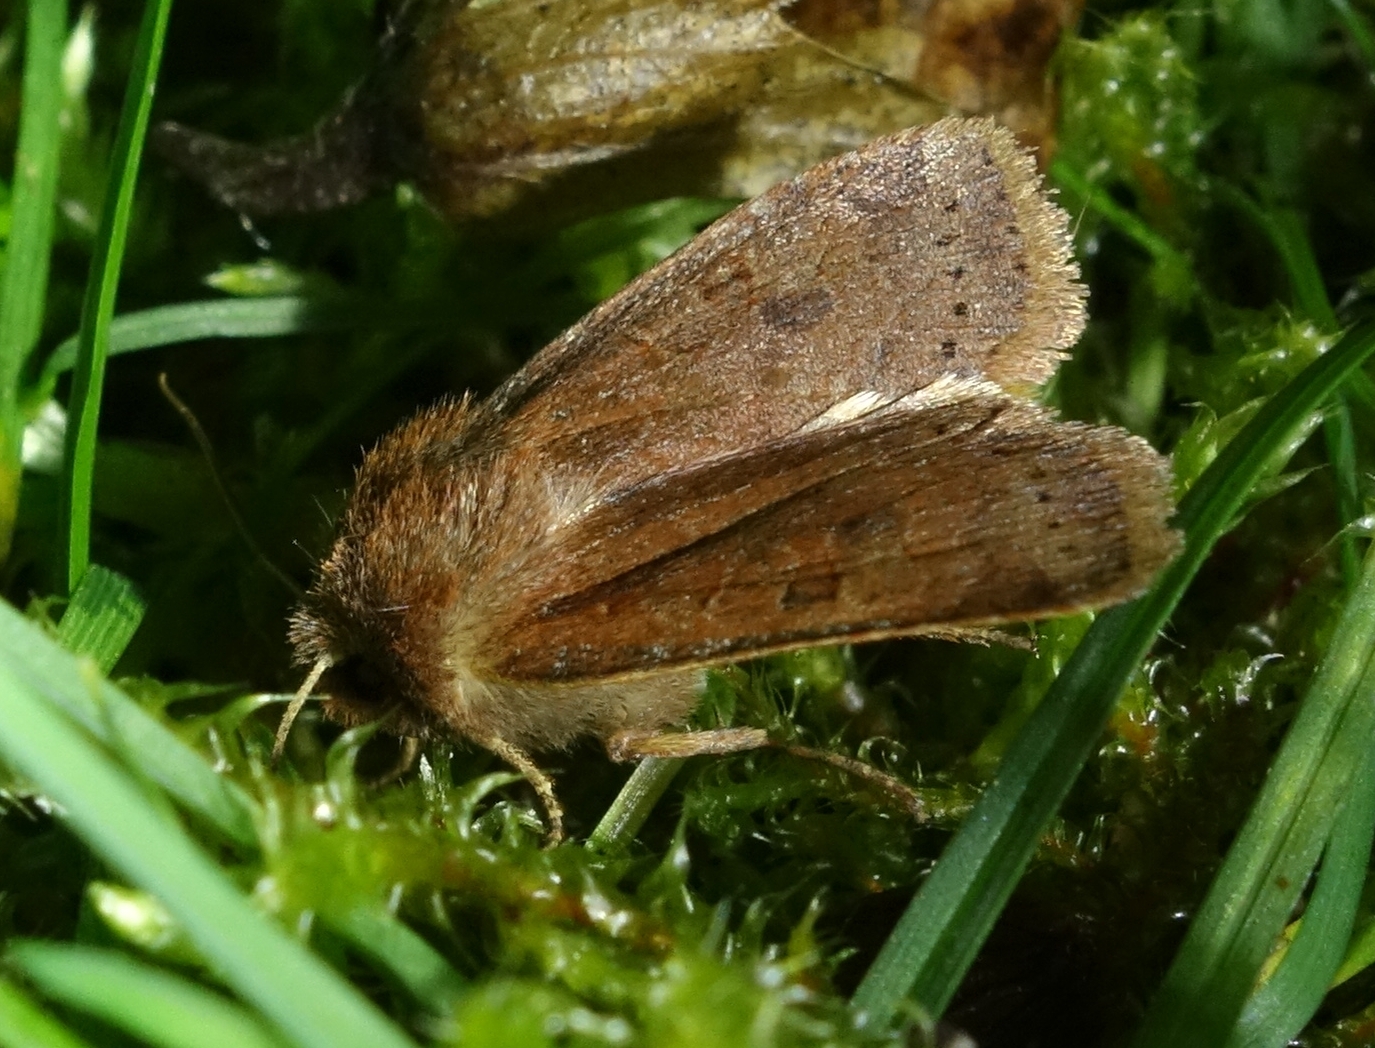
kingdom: Animalia
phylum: Arthropoda
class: Insecta
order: Lepidoptera
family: Noctuidae
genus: Conistra
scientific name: Conistra vaccinii
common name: Chestnut
